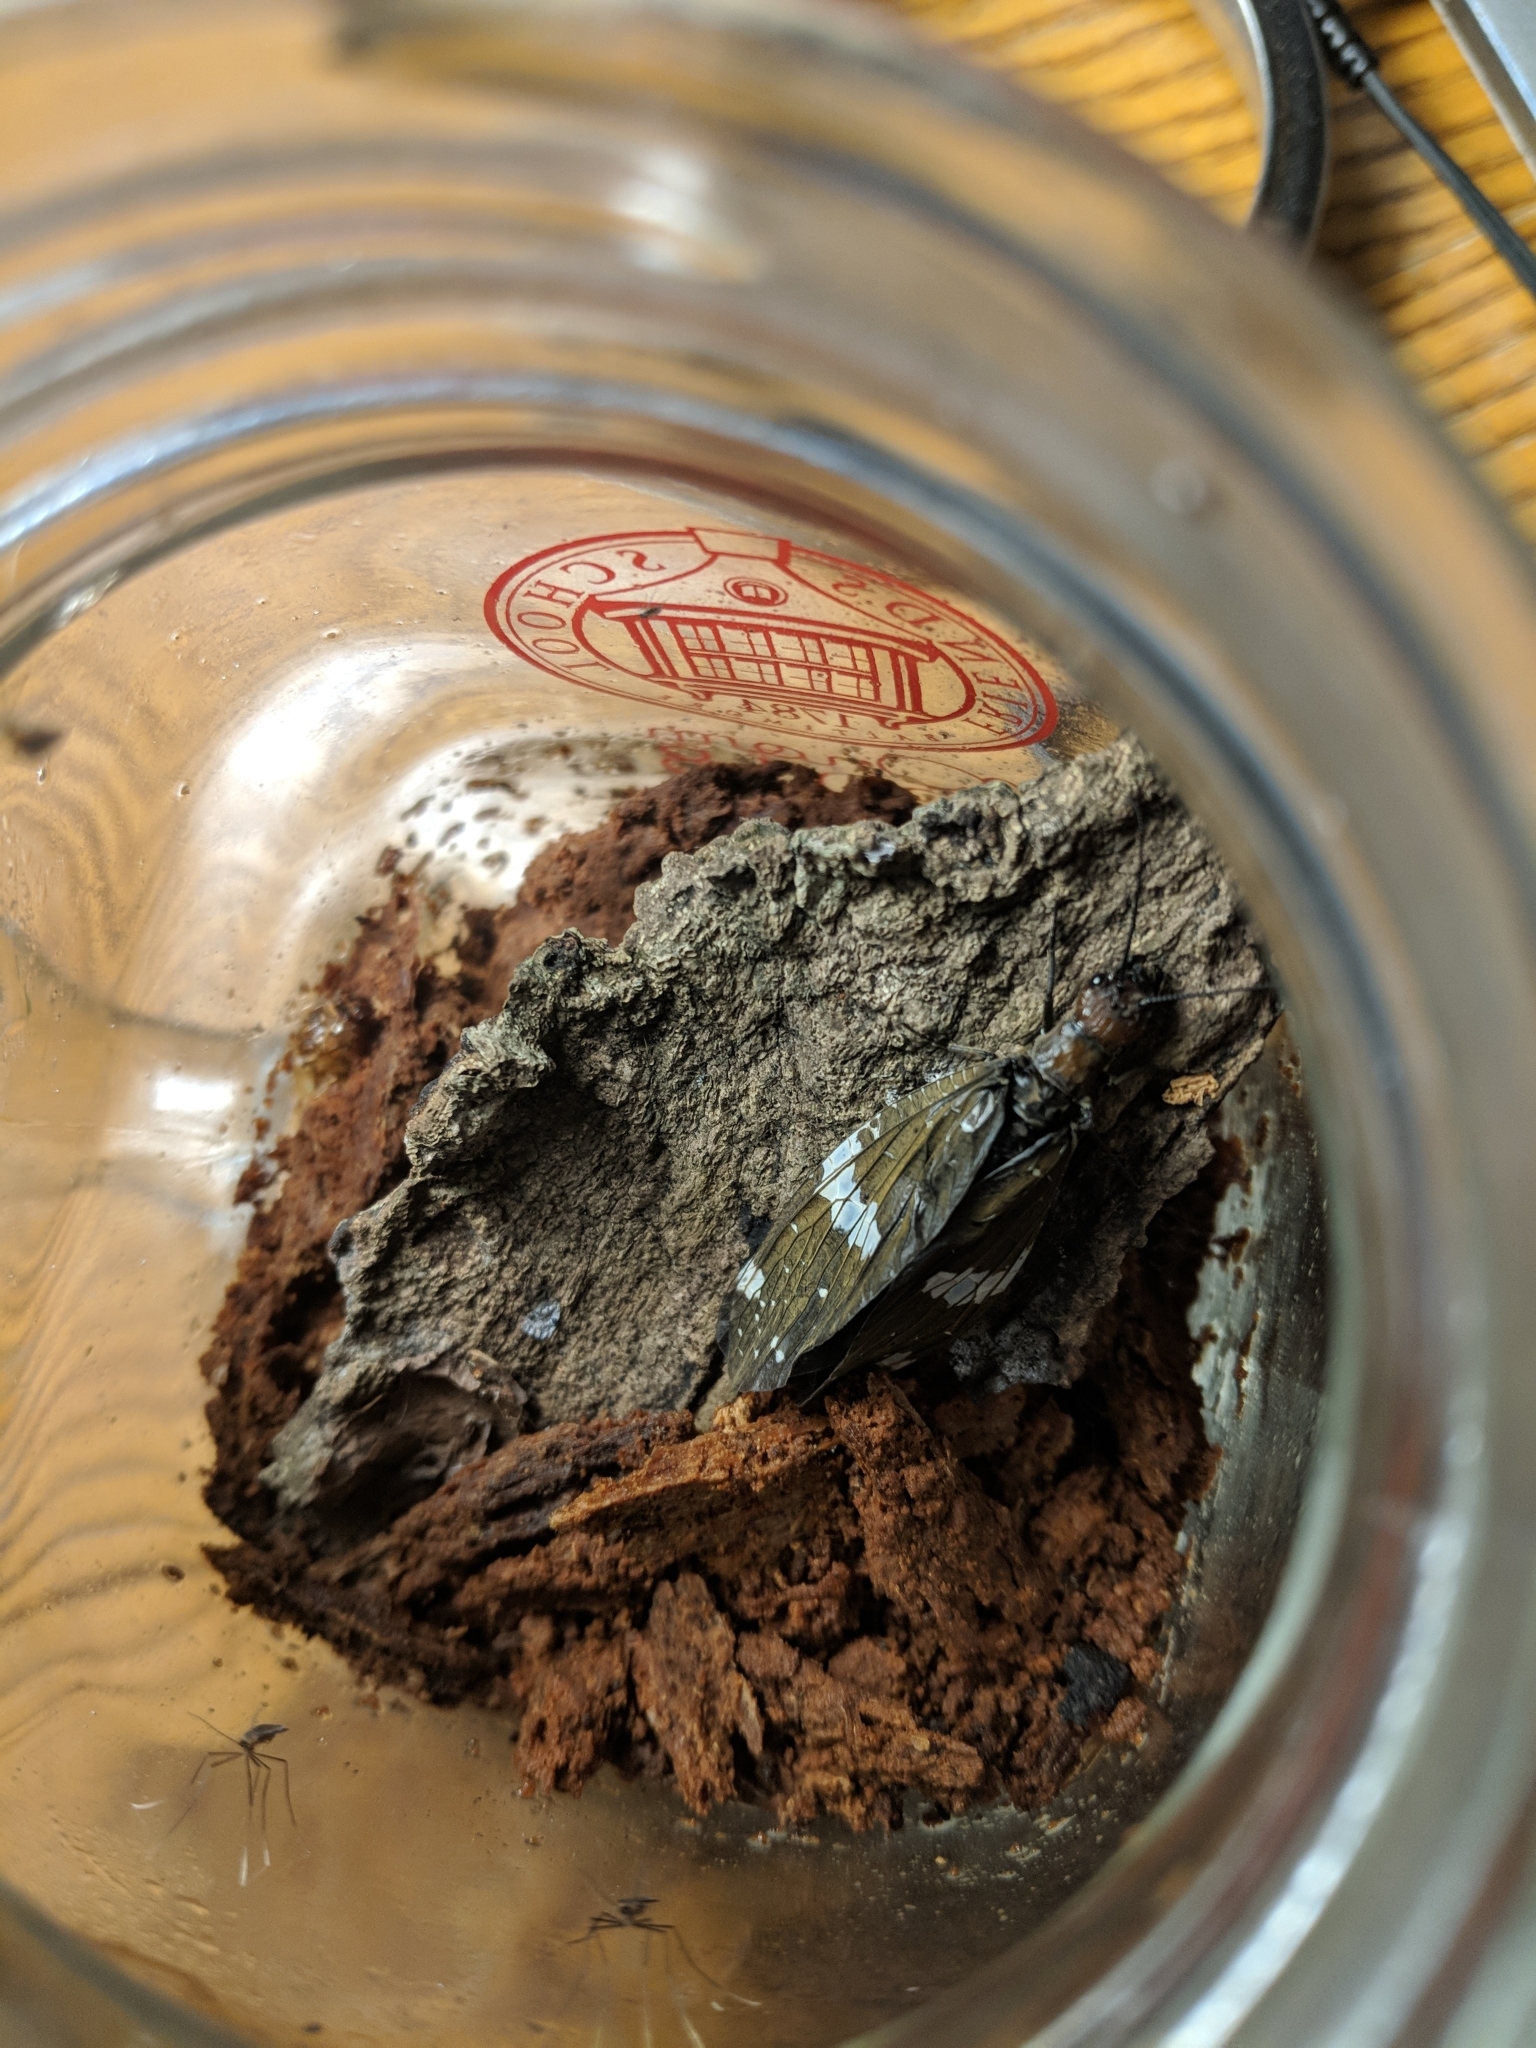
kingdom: Animalia
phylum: Arthropoda
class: Insecta
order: Megaloptera
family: Corydalidae
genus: Nigronia
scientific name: Nigronia serricornis
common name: Serrate dark fishfly
